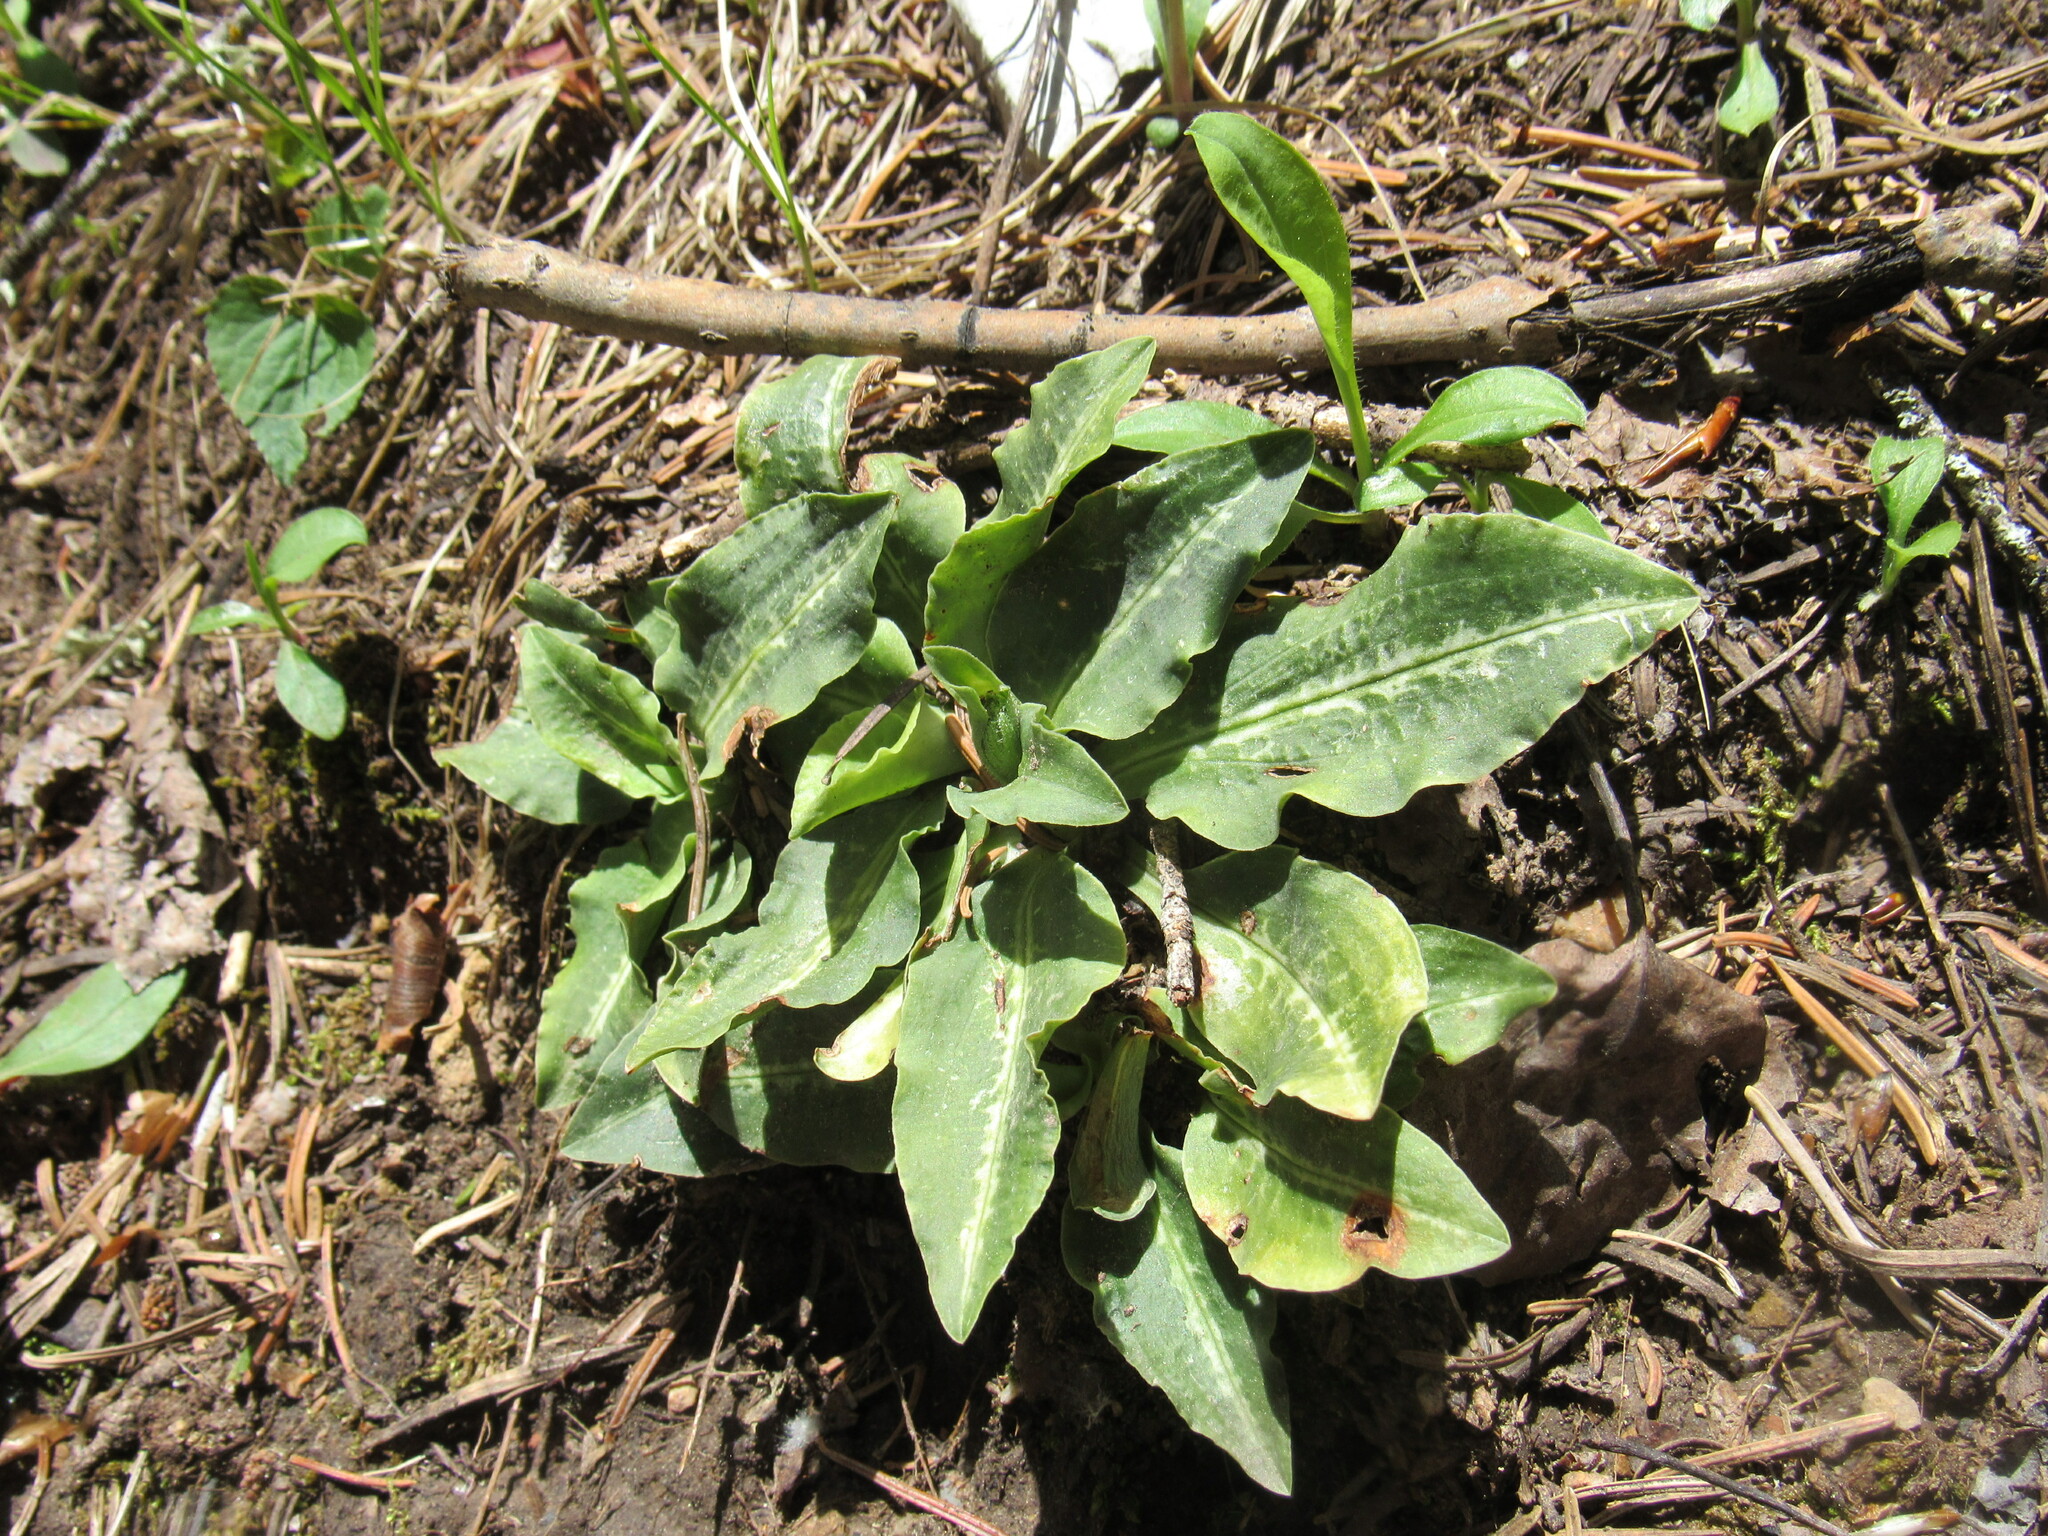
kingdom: Plantae
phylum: Tracheophyta
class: Liliopsida
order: Asparagales
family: Orchidaceae
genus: Goodyera
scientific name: Goodyera oblongifolia
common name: Giant rattlesnake-plantain
